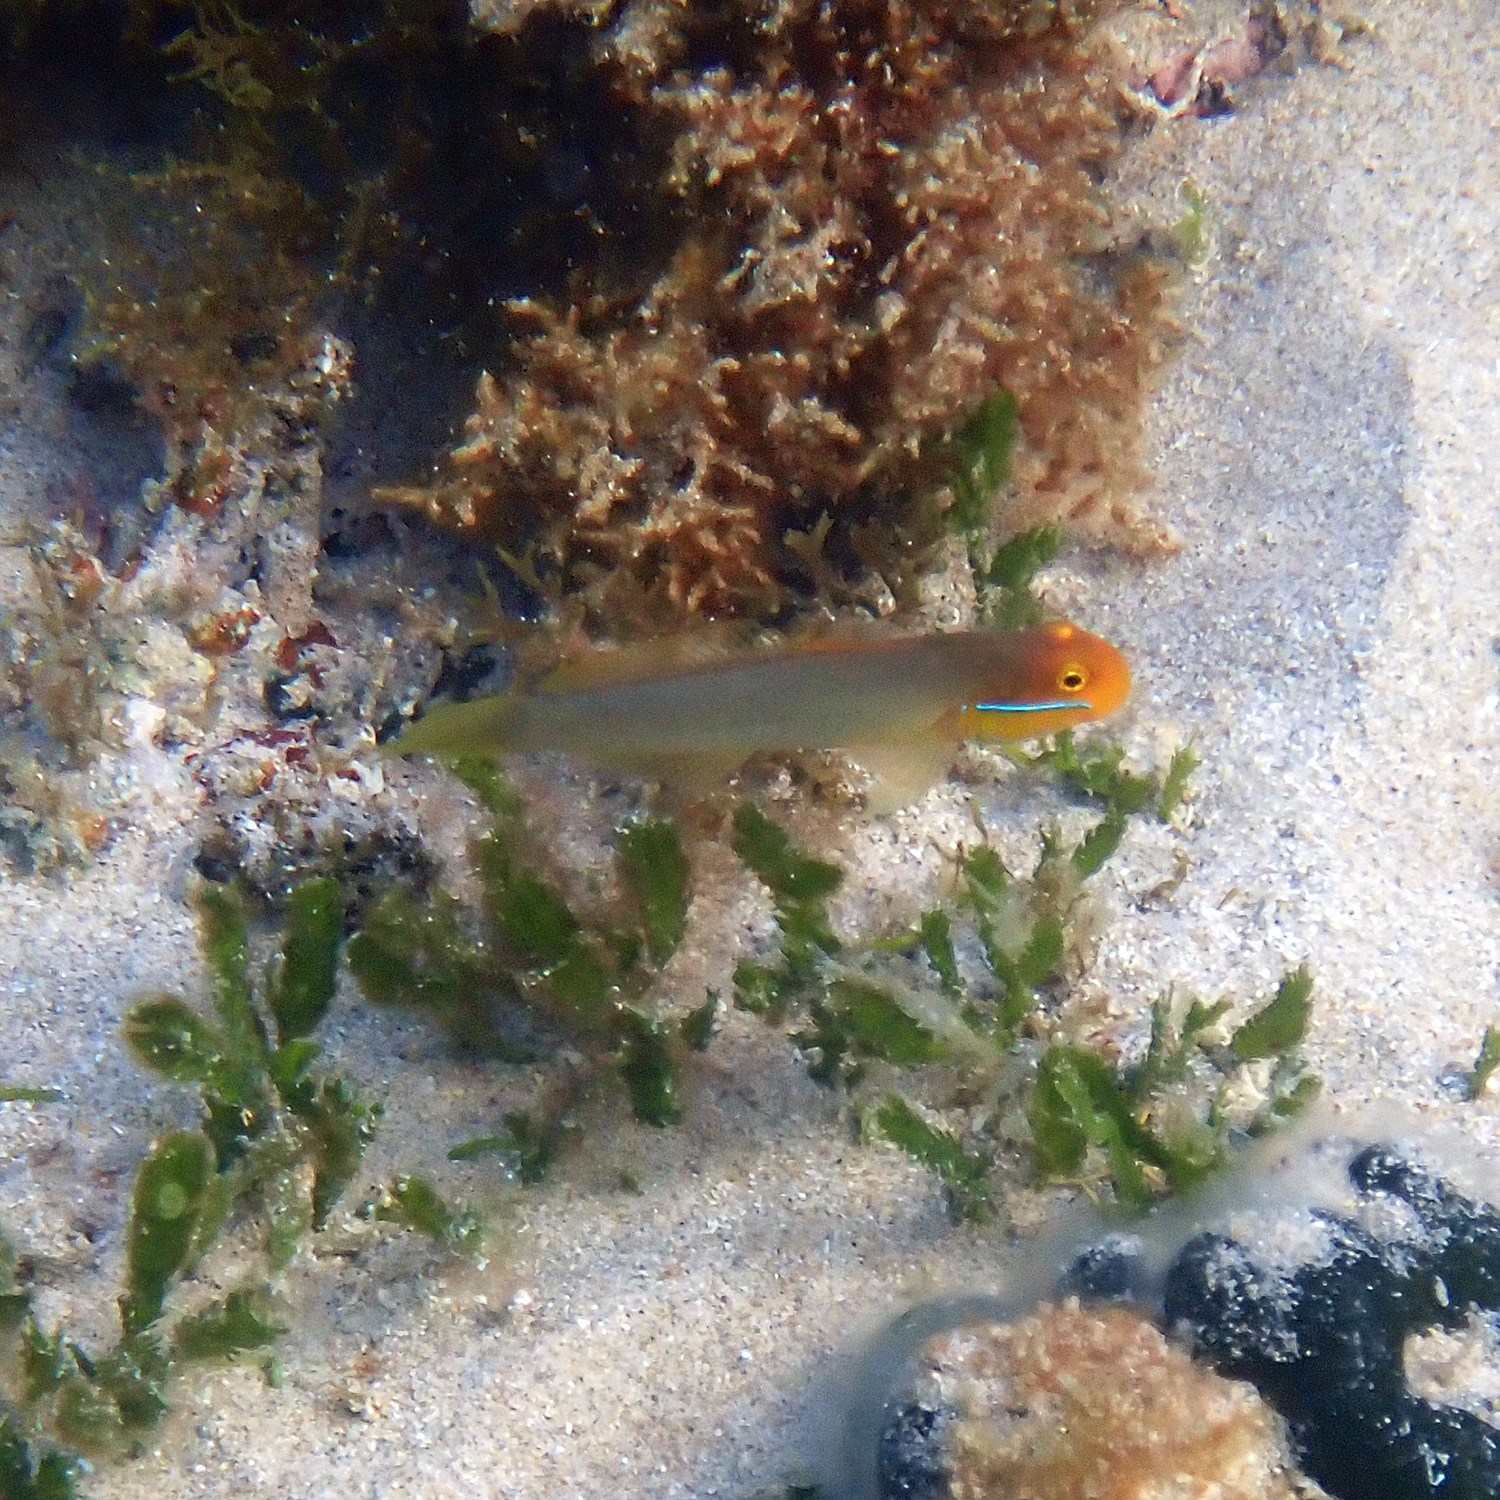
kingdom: Animalia
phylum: Chordata
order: Perciformes
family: Gobiidae
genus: Valenciennea
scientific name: Valenciennea strigata
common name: Blueband goby
